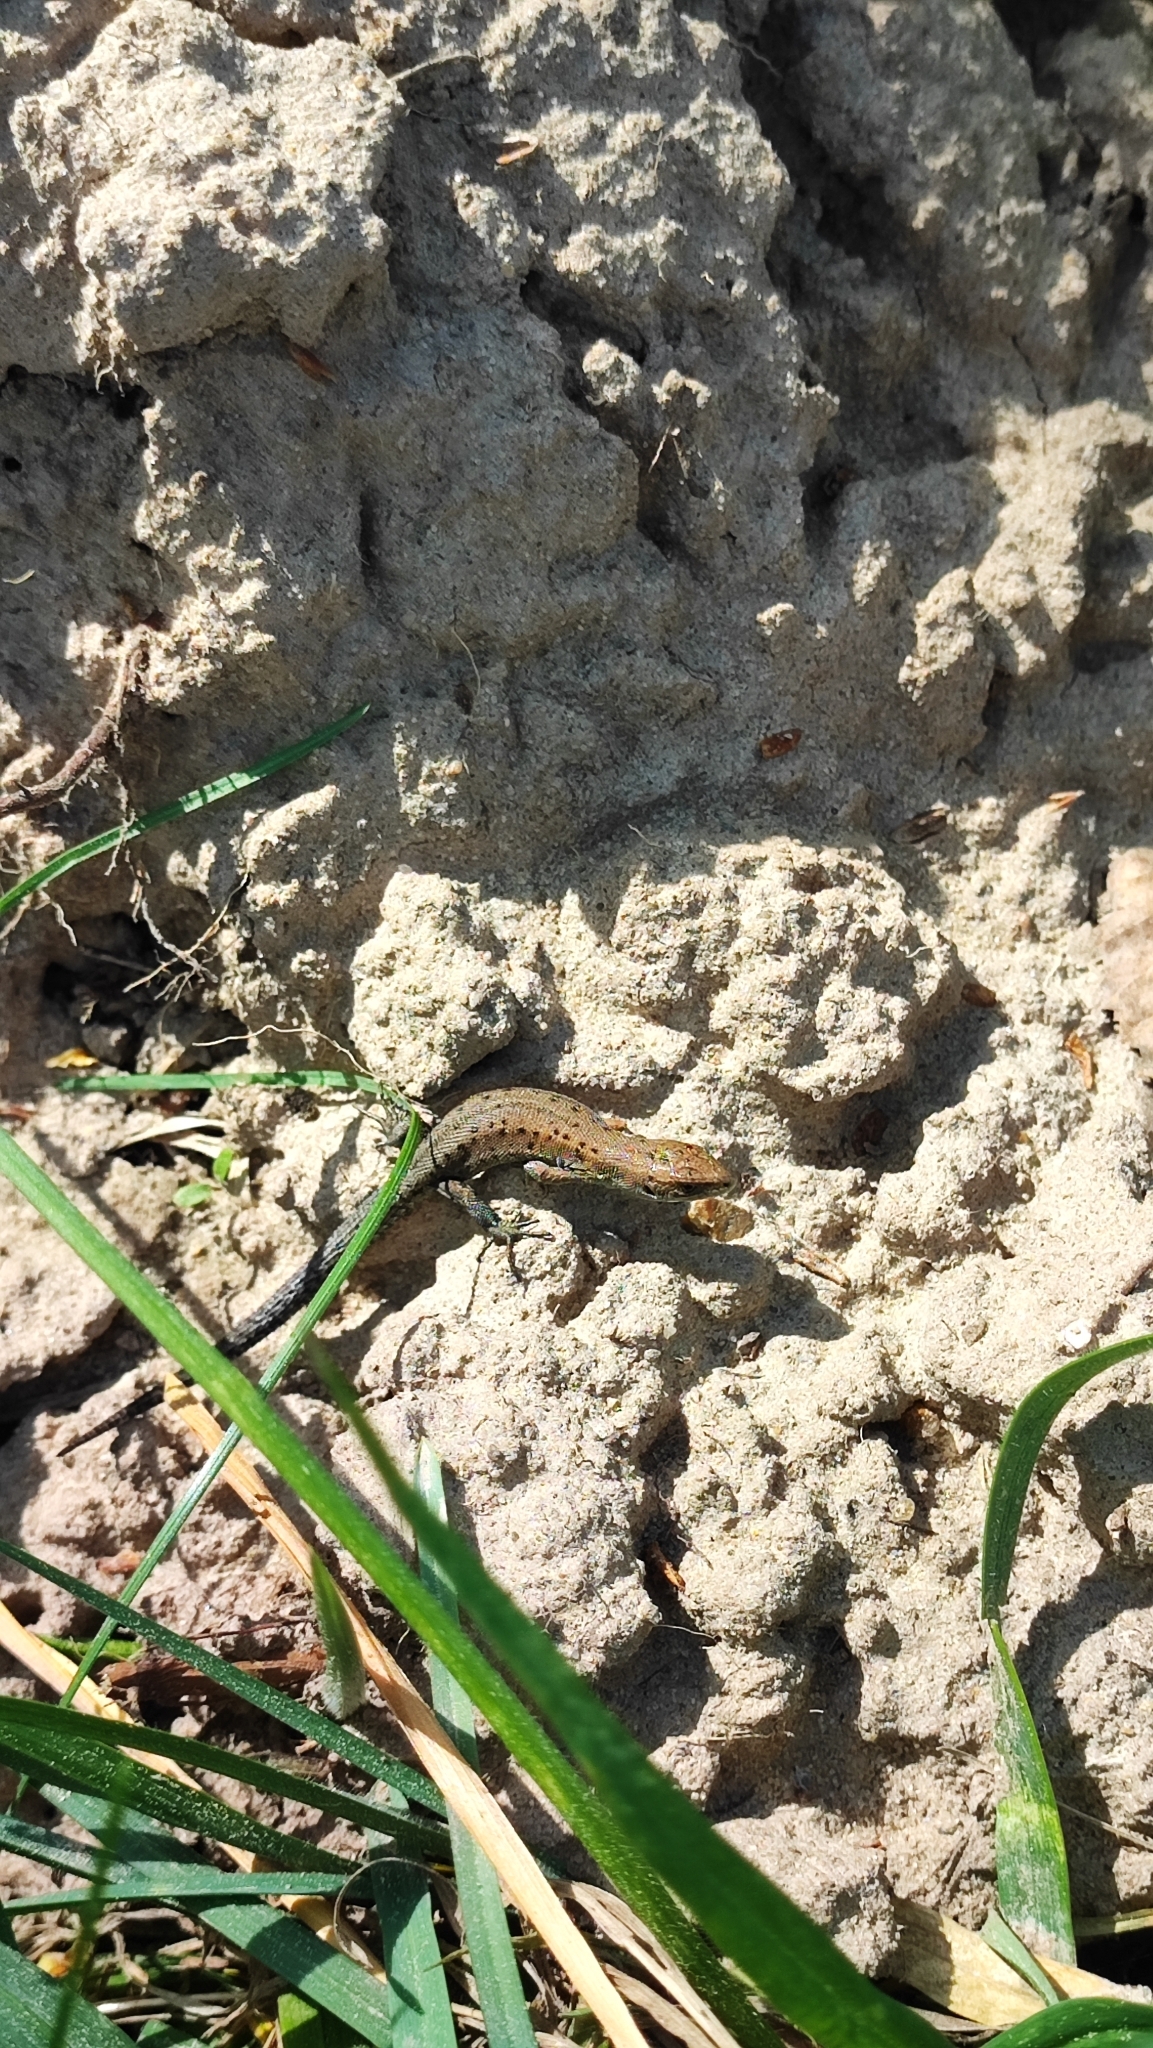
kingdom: Animalia
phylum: Chordata
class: Squamata
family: Lacertidae
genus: Zootoca
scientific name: Zootoca vivipara
